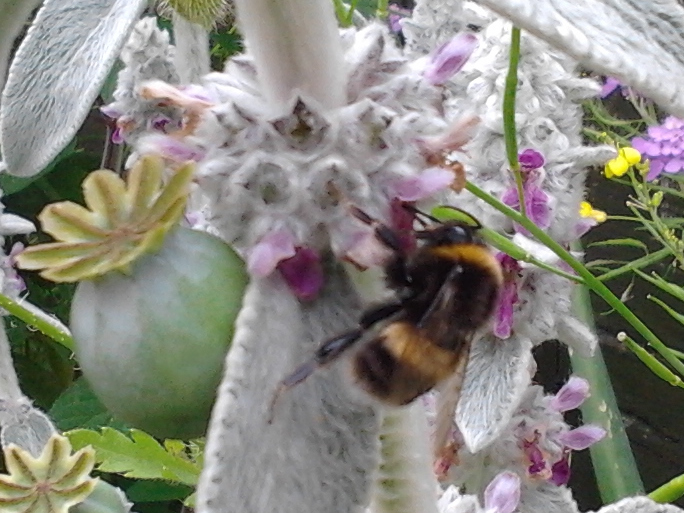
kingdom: Animalia
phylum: Arthropoda
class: Insecta
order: Hymenoptera
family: Apidae
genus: Bombus
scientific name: Bombus terrestris
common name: Buff-tailed bumblebee
